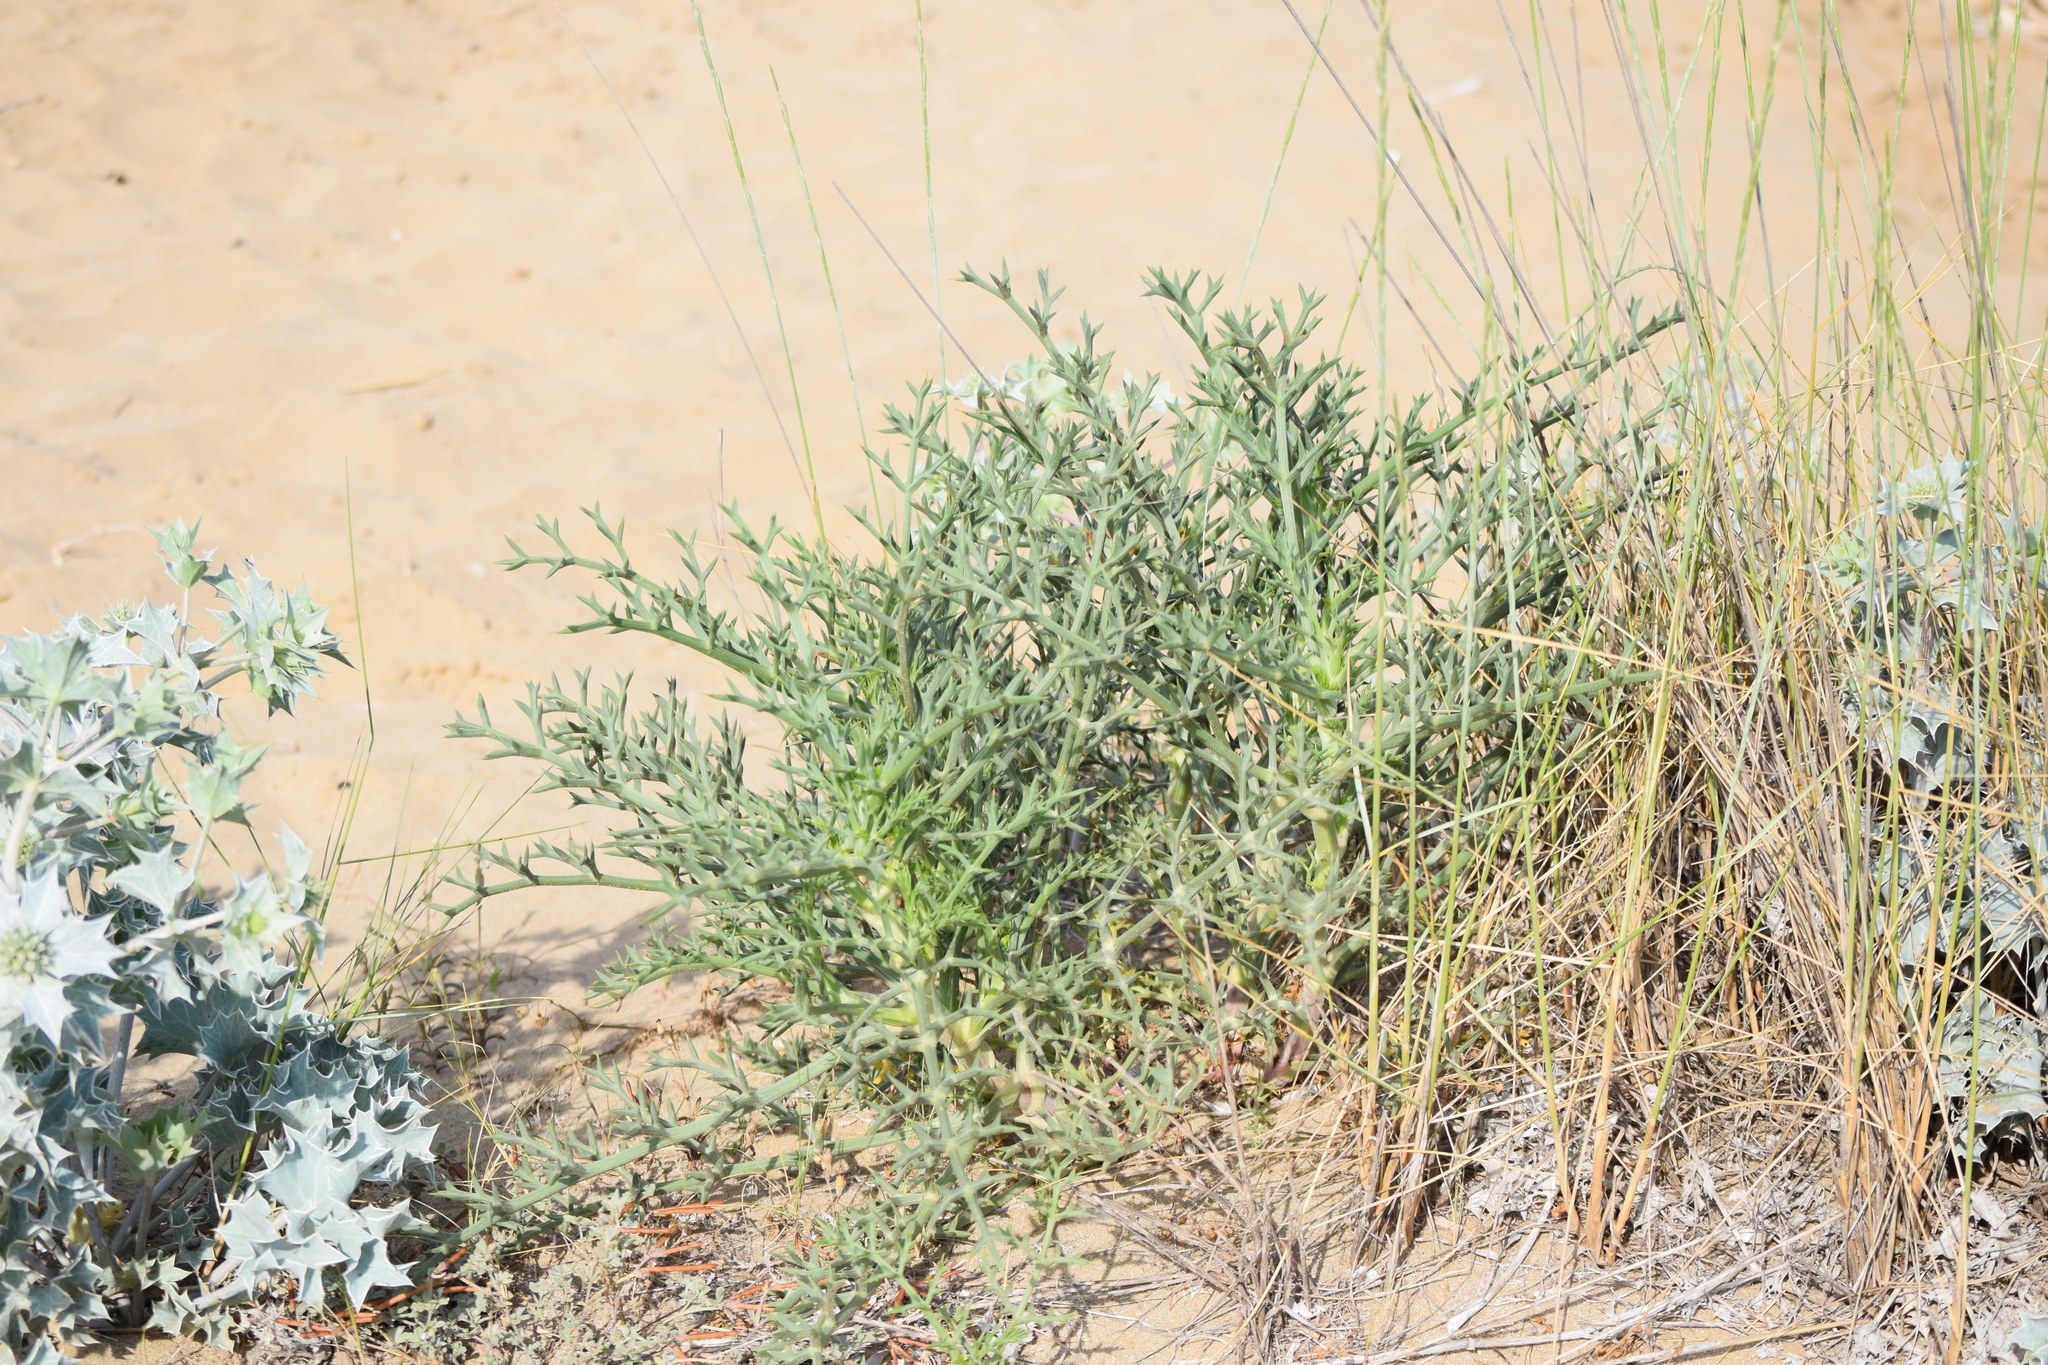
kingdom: Plantae
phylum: Tracheophyta
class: Magnoliopsida
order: Apiales
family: Apiaceae
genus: Echinophora
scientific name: Echinophora spinosa
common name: Prickly samphire
